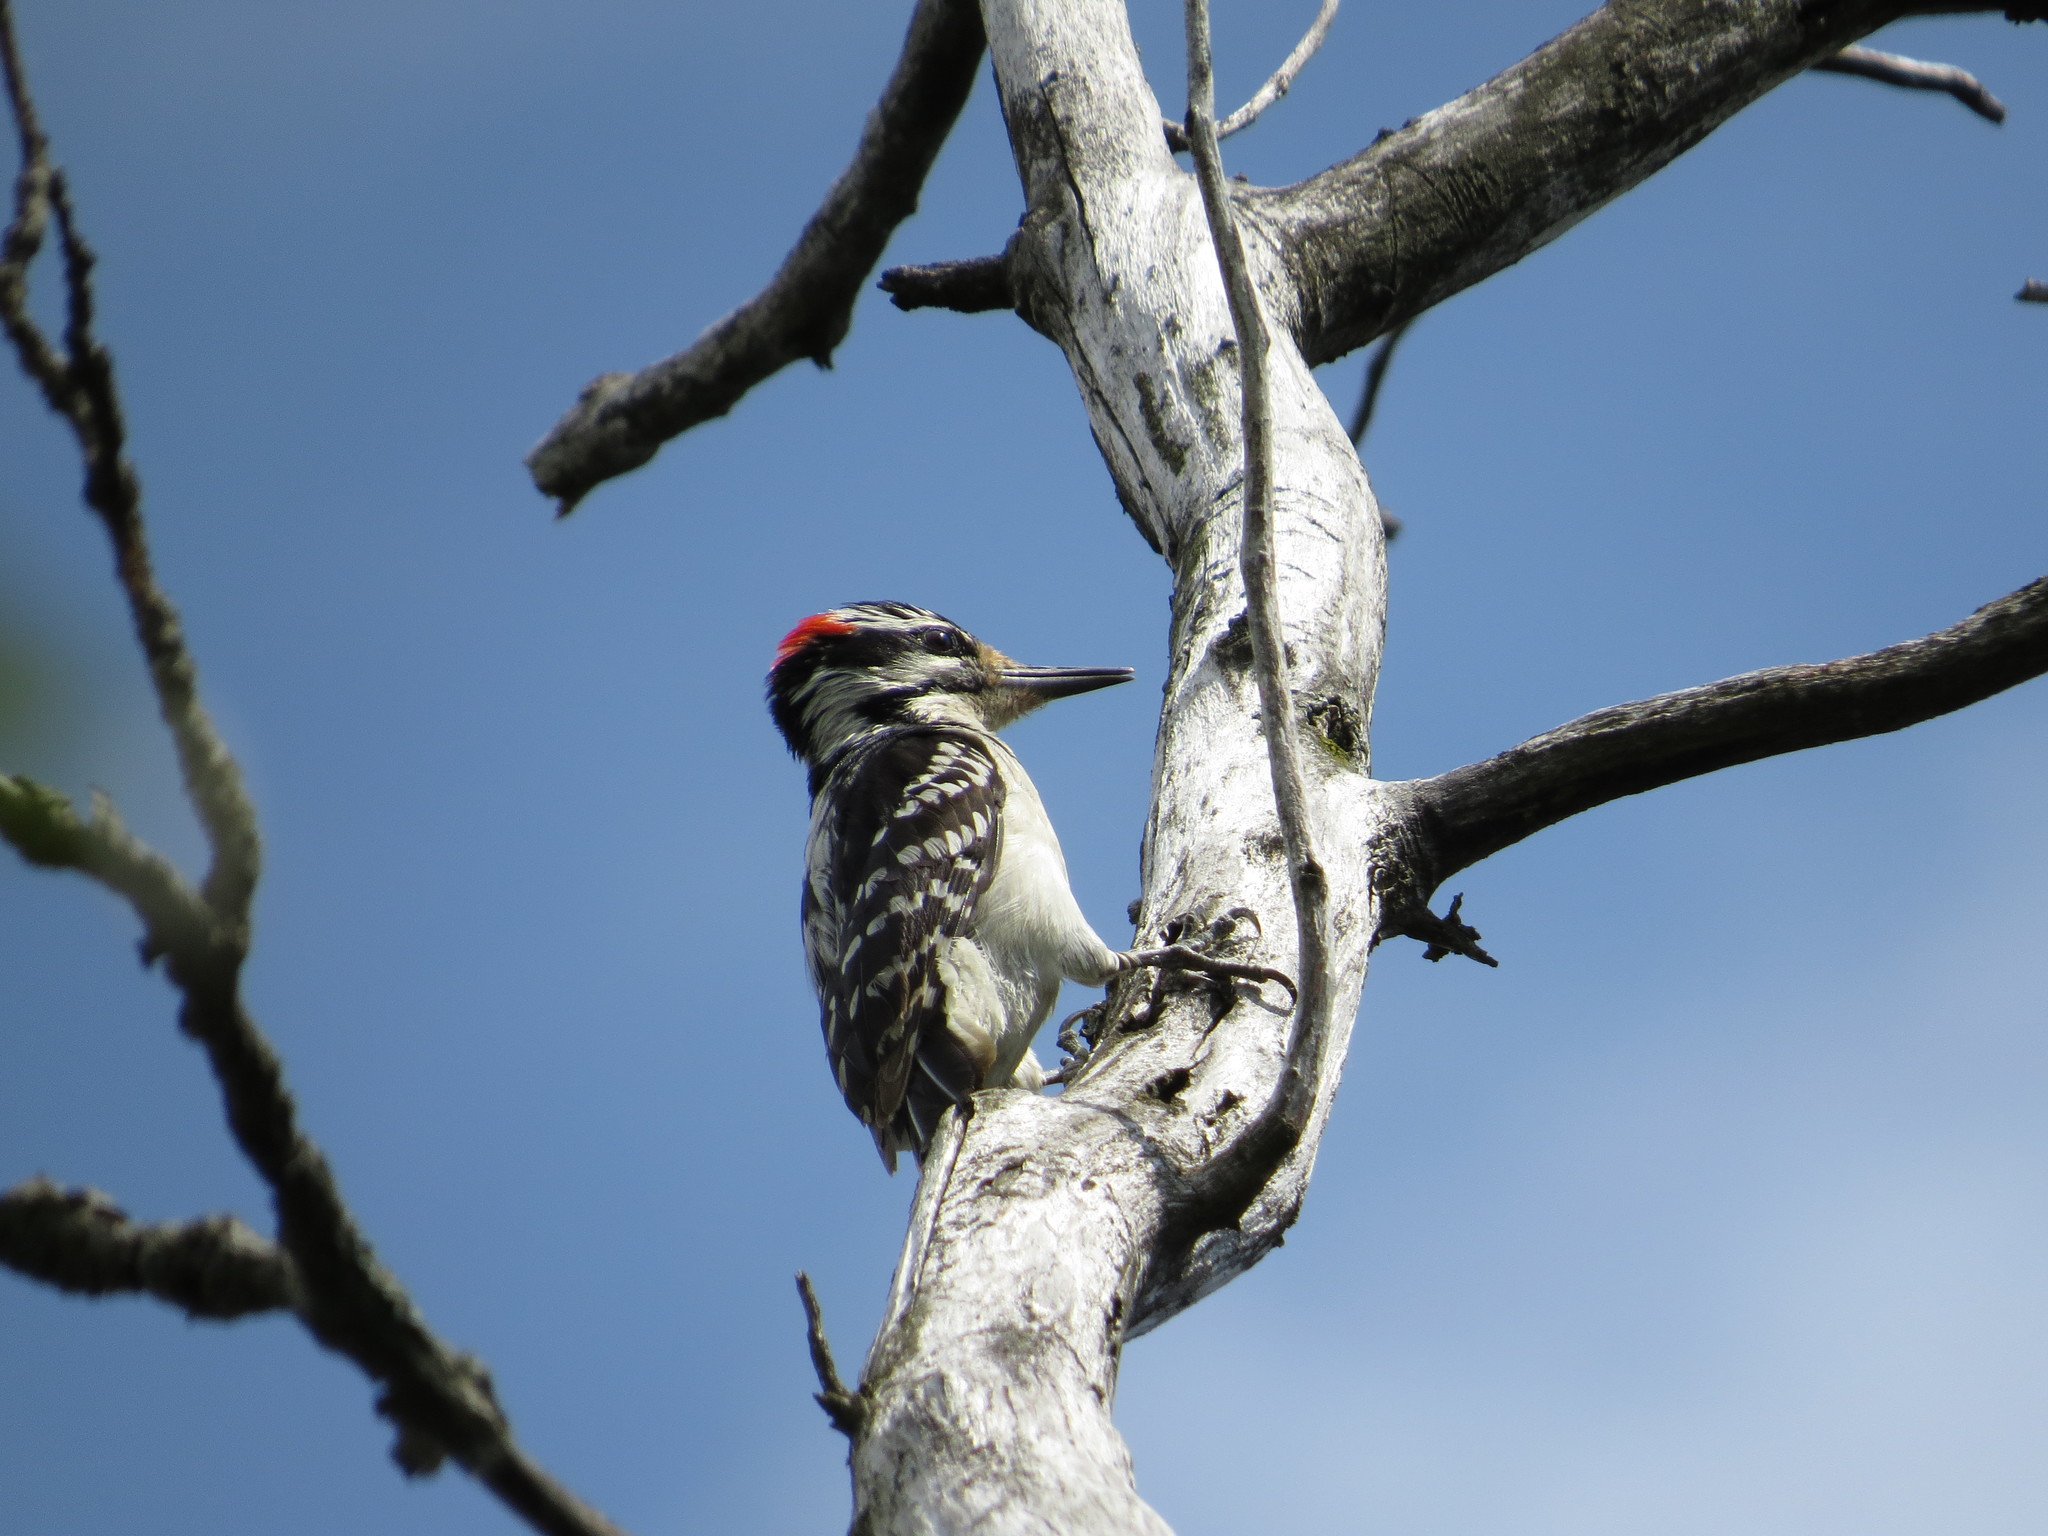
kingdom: Animalia
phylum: Chordata
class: Aves
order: Piciformes
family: Picidae
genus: Leuconotopicus
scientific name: Leuconotopicus villosus
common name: Hairy woodpecker
